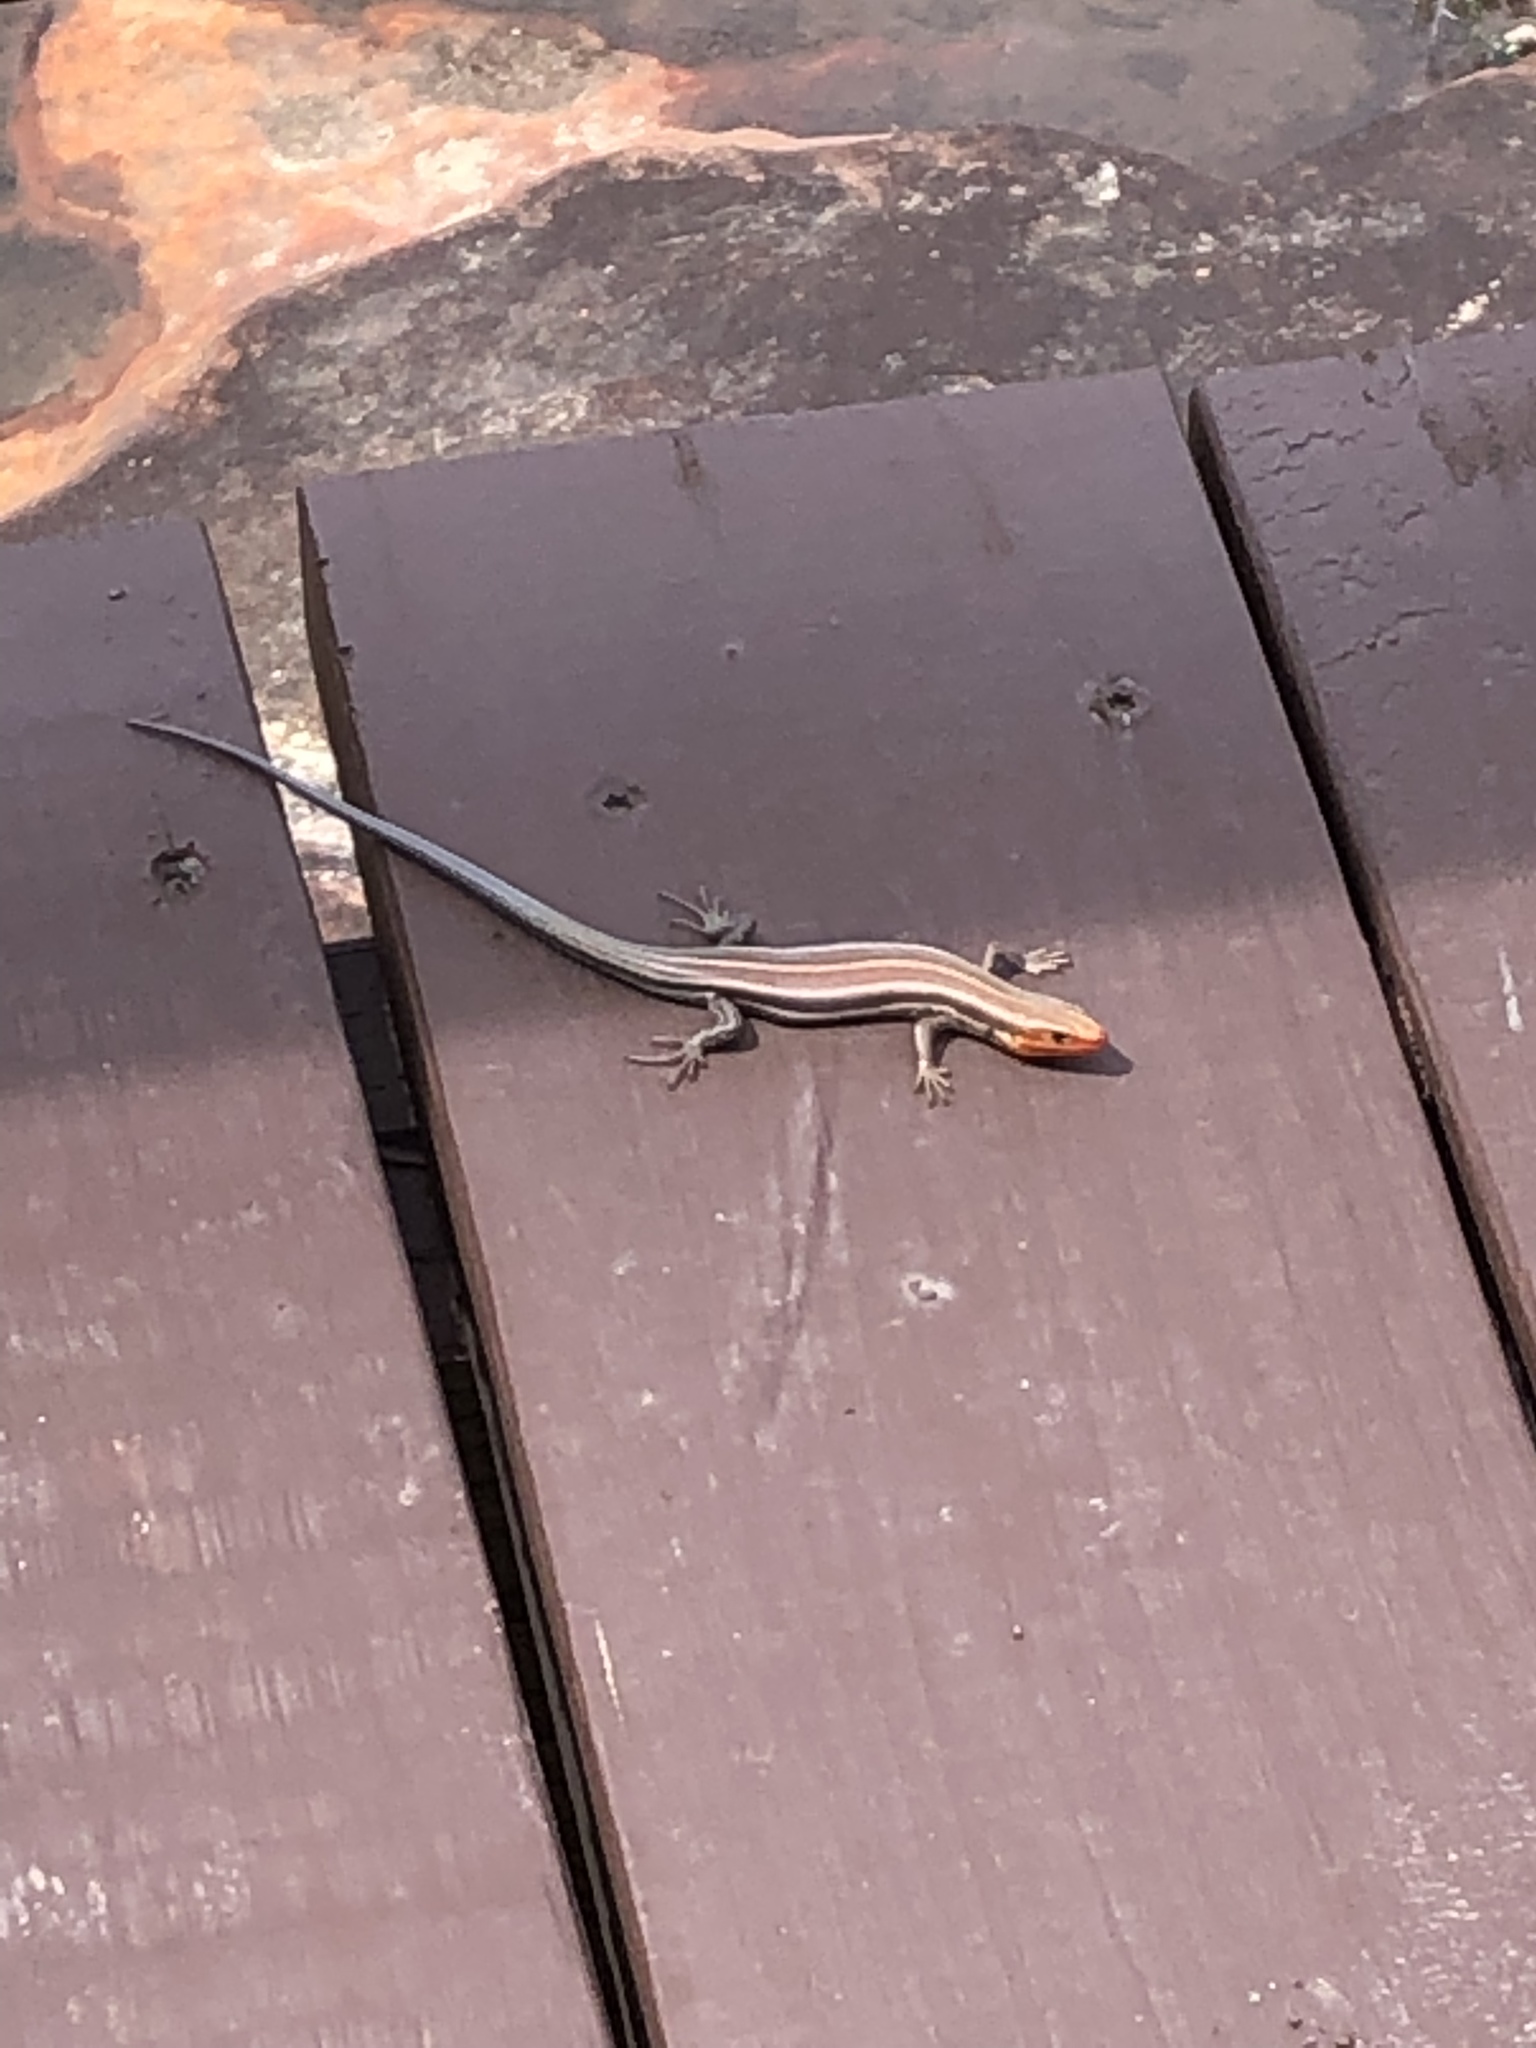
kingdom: Animalia
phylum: Chordata
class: Squamata
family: Scincidae
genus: Plestiodon
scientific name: Plestiodon
